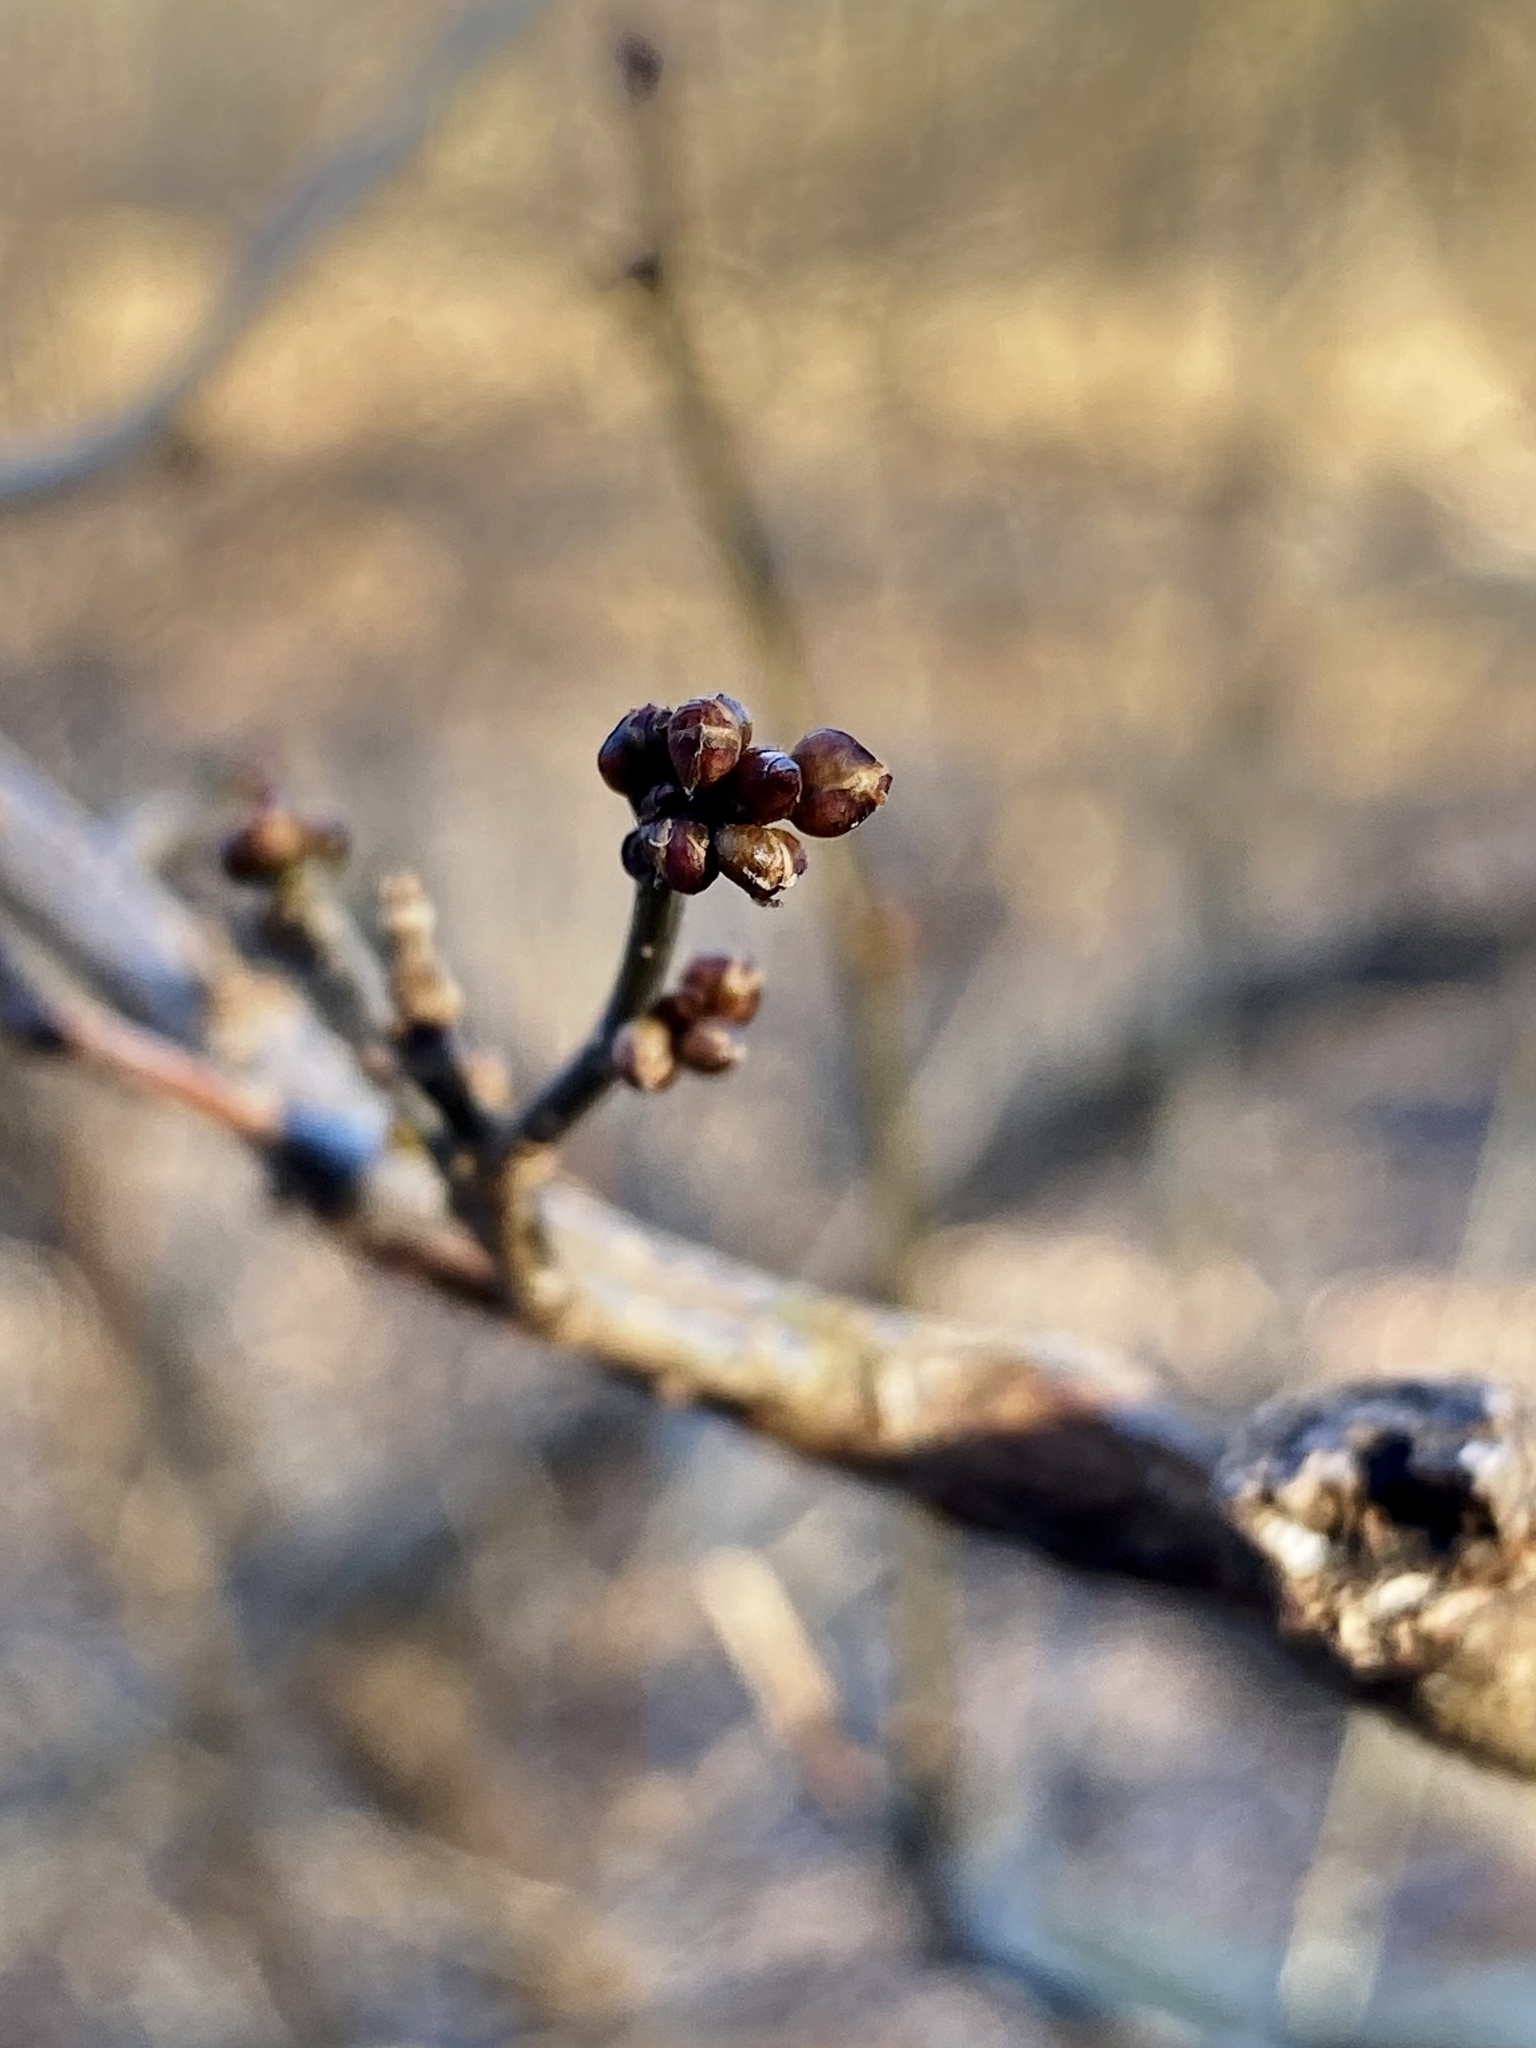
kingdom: Plantae
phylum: Tracheophyta
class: Magnoliopsida
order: Laurales
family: Lauraceae
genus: Lindera
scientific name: Lindera benzoin
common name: Spicebush
